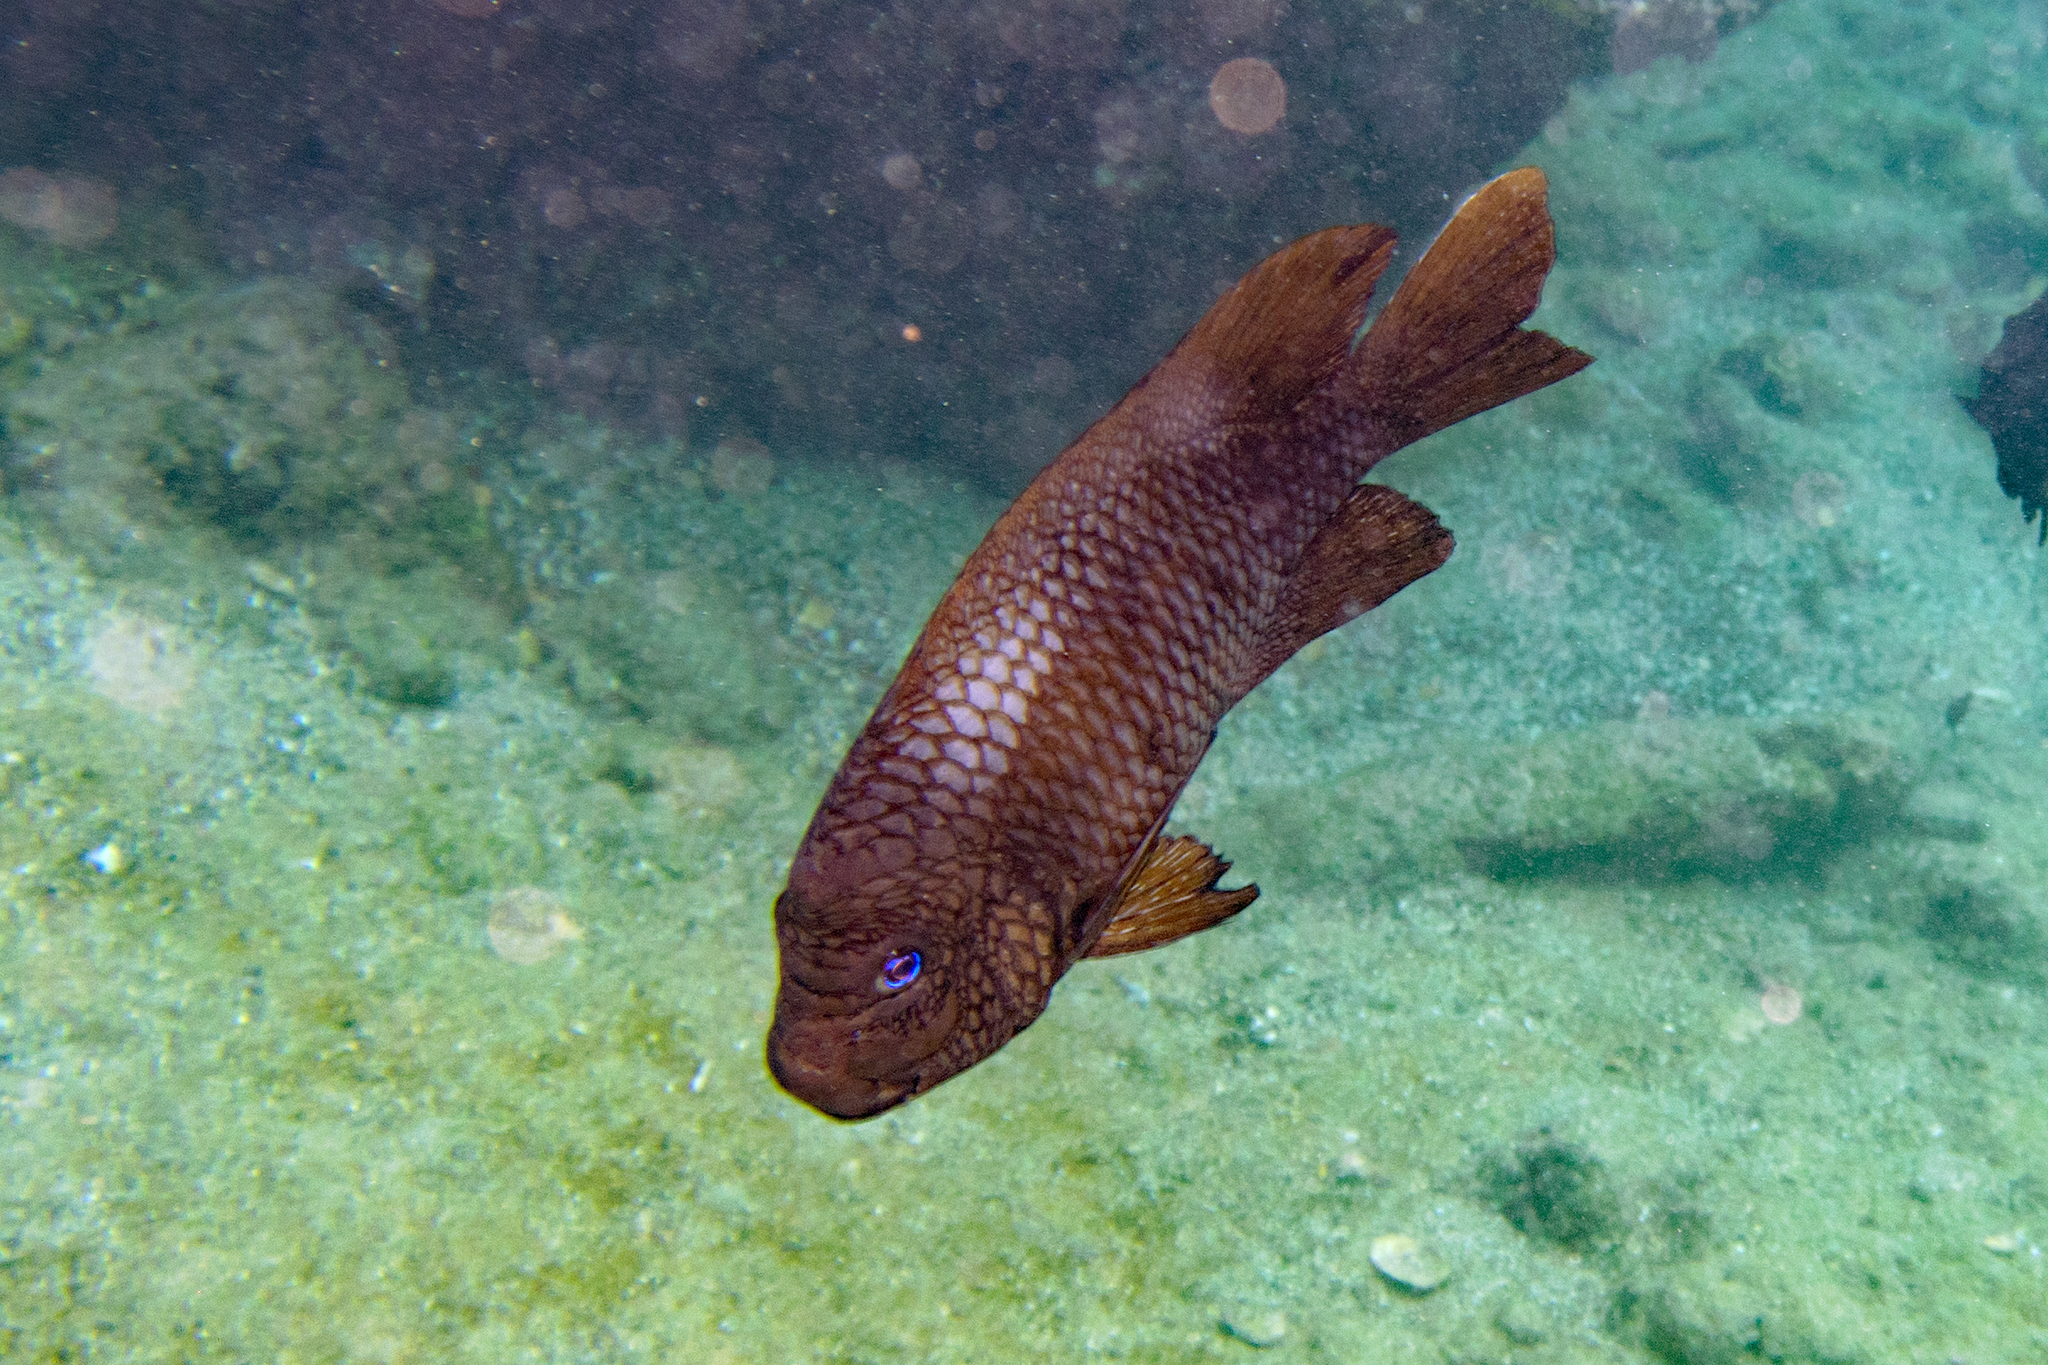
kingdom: Animalia
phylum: Chordata
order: Perciformes
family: Pomacentridae
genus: Microspathodon
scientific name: Microspathodon bairdii
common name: Bumphead damselfish
